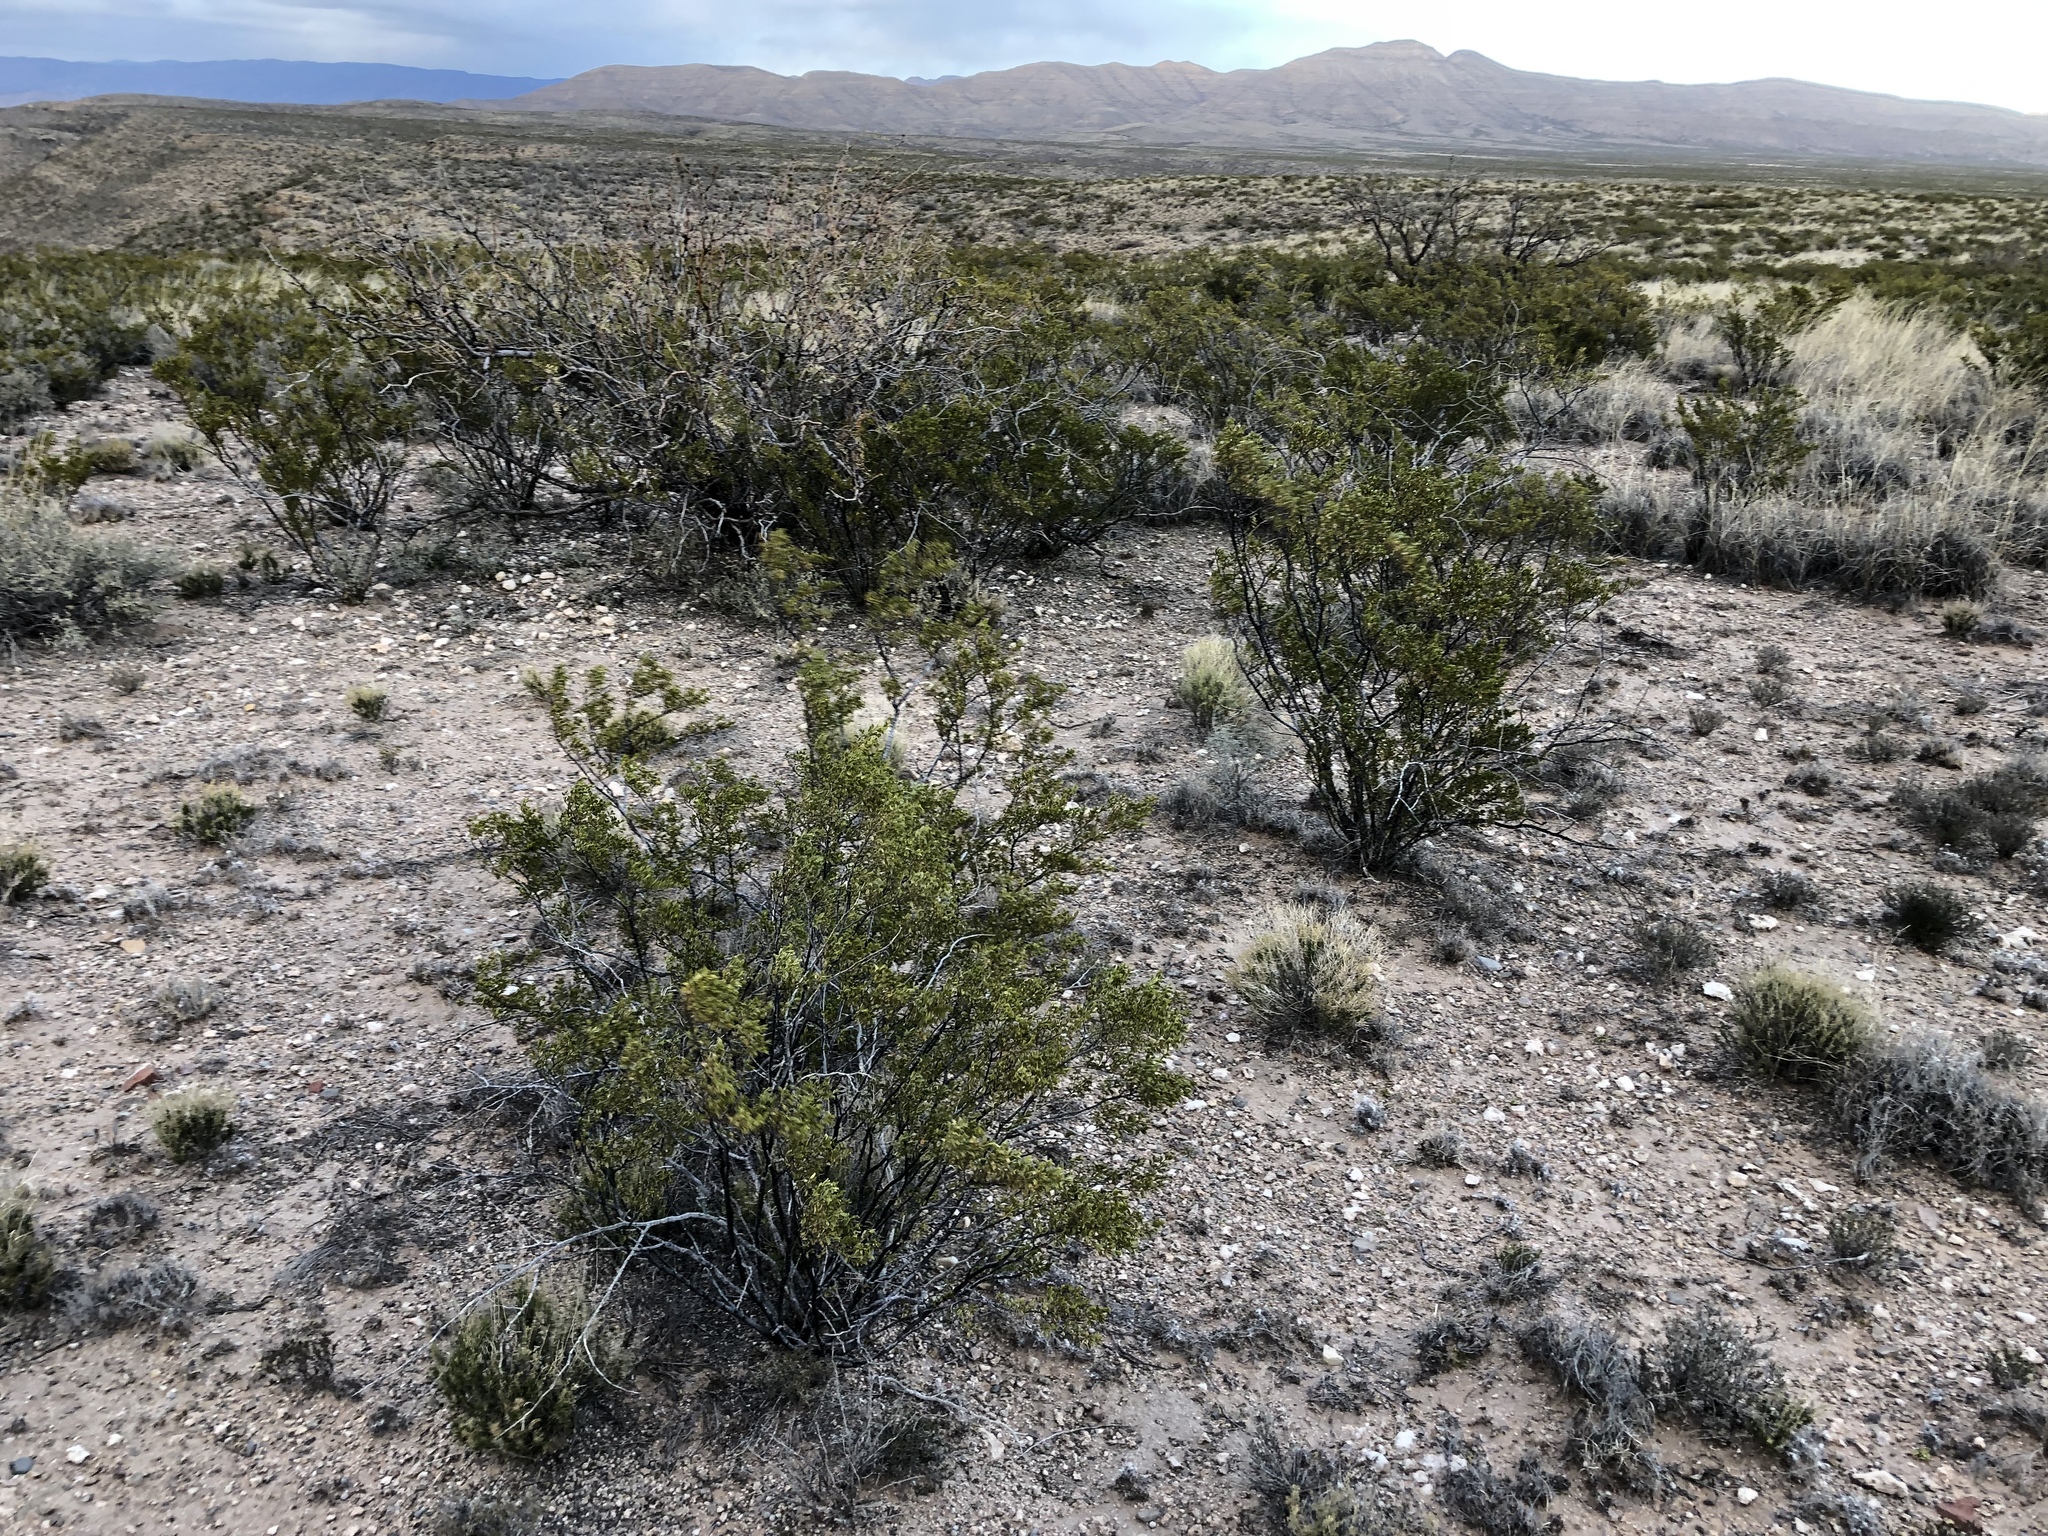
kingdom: Plantae
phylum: Tracheophyta
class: Magnoliopsida
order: Zygophyllales
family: Zygophyllaceae
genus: Larrea
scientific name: Larrea tridentata
